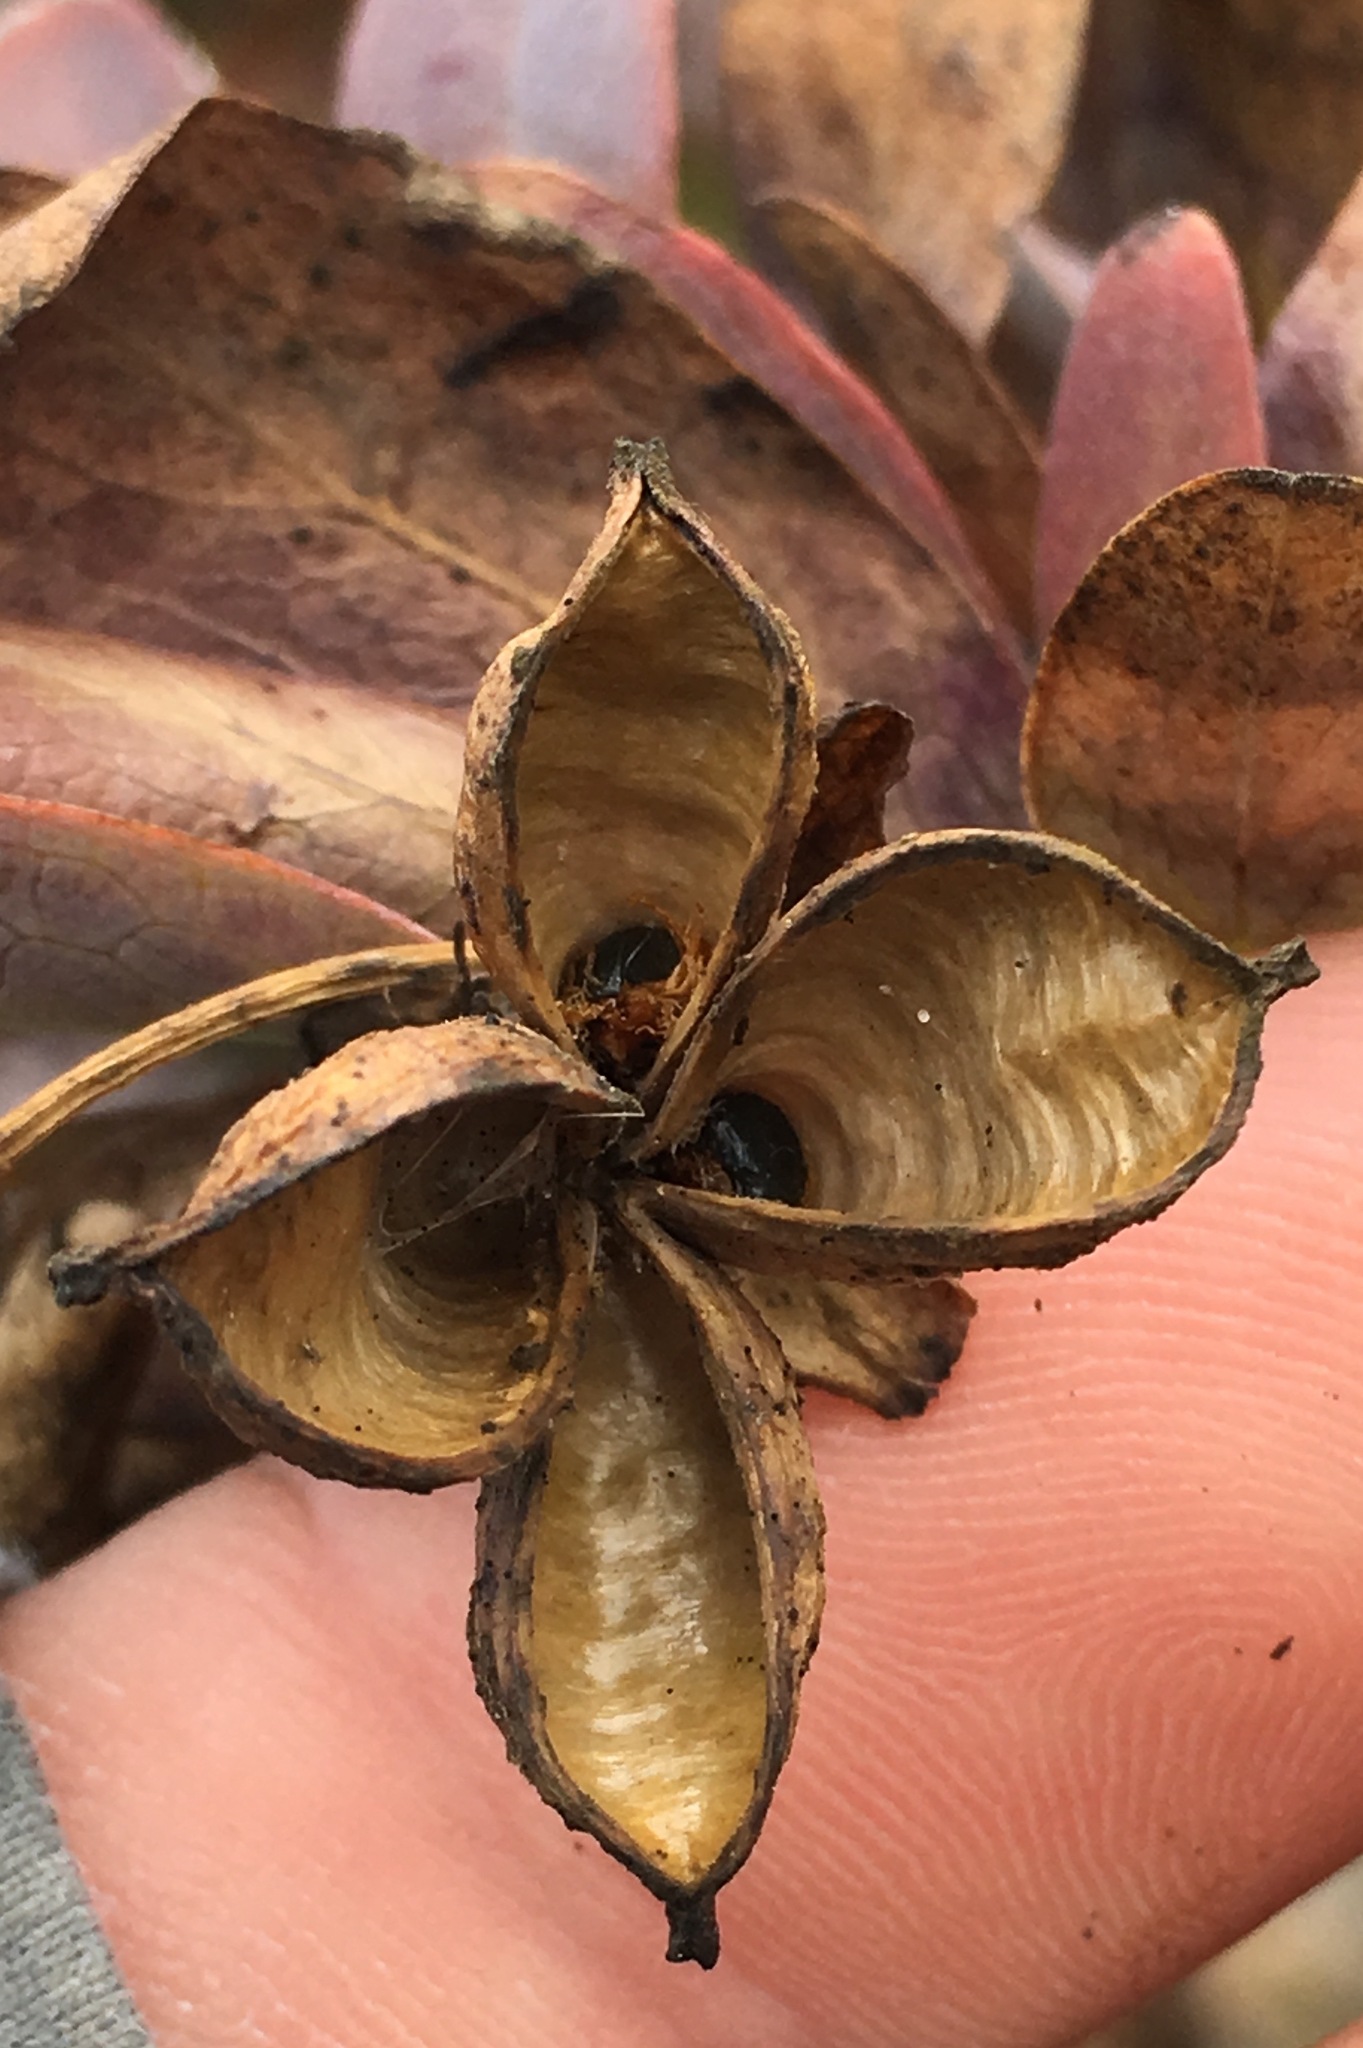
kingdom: Plantae
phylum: Tracheophyta
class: Magnoliopsida
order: Crossosomatales
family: Crossosomataceae
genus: Crossosoma
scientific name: Crossosoma californicum
